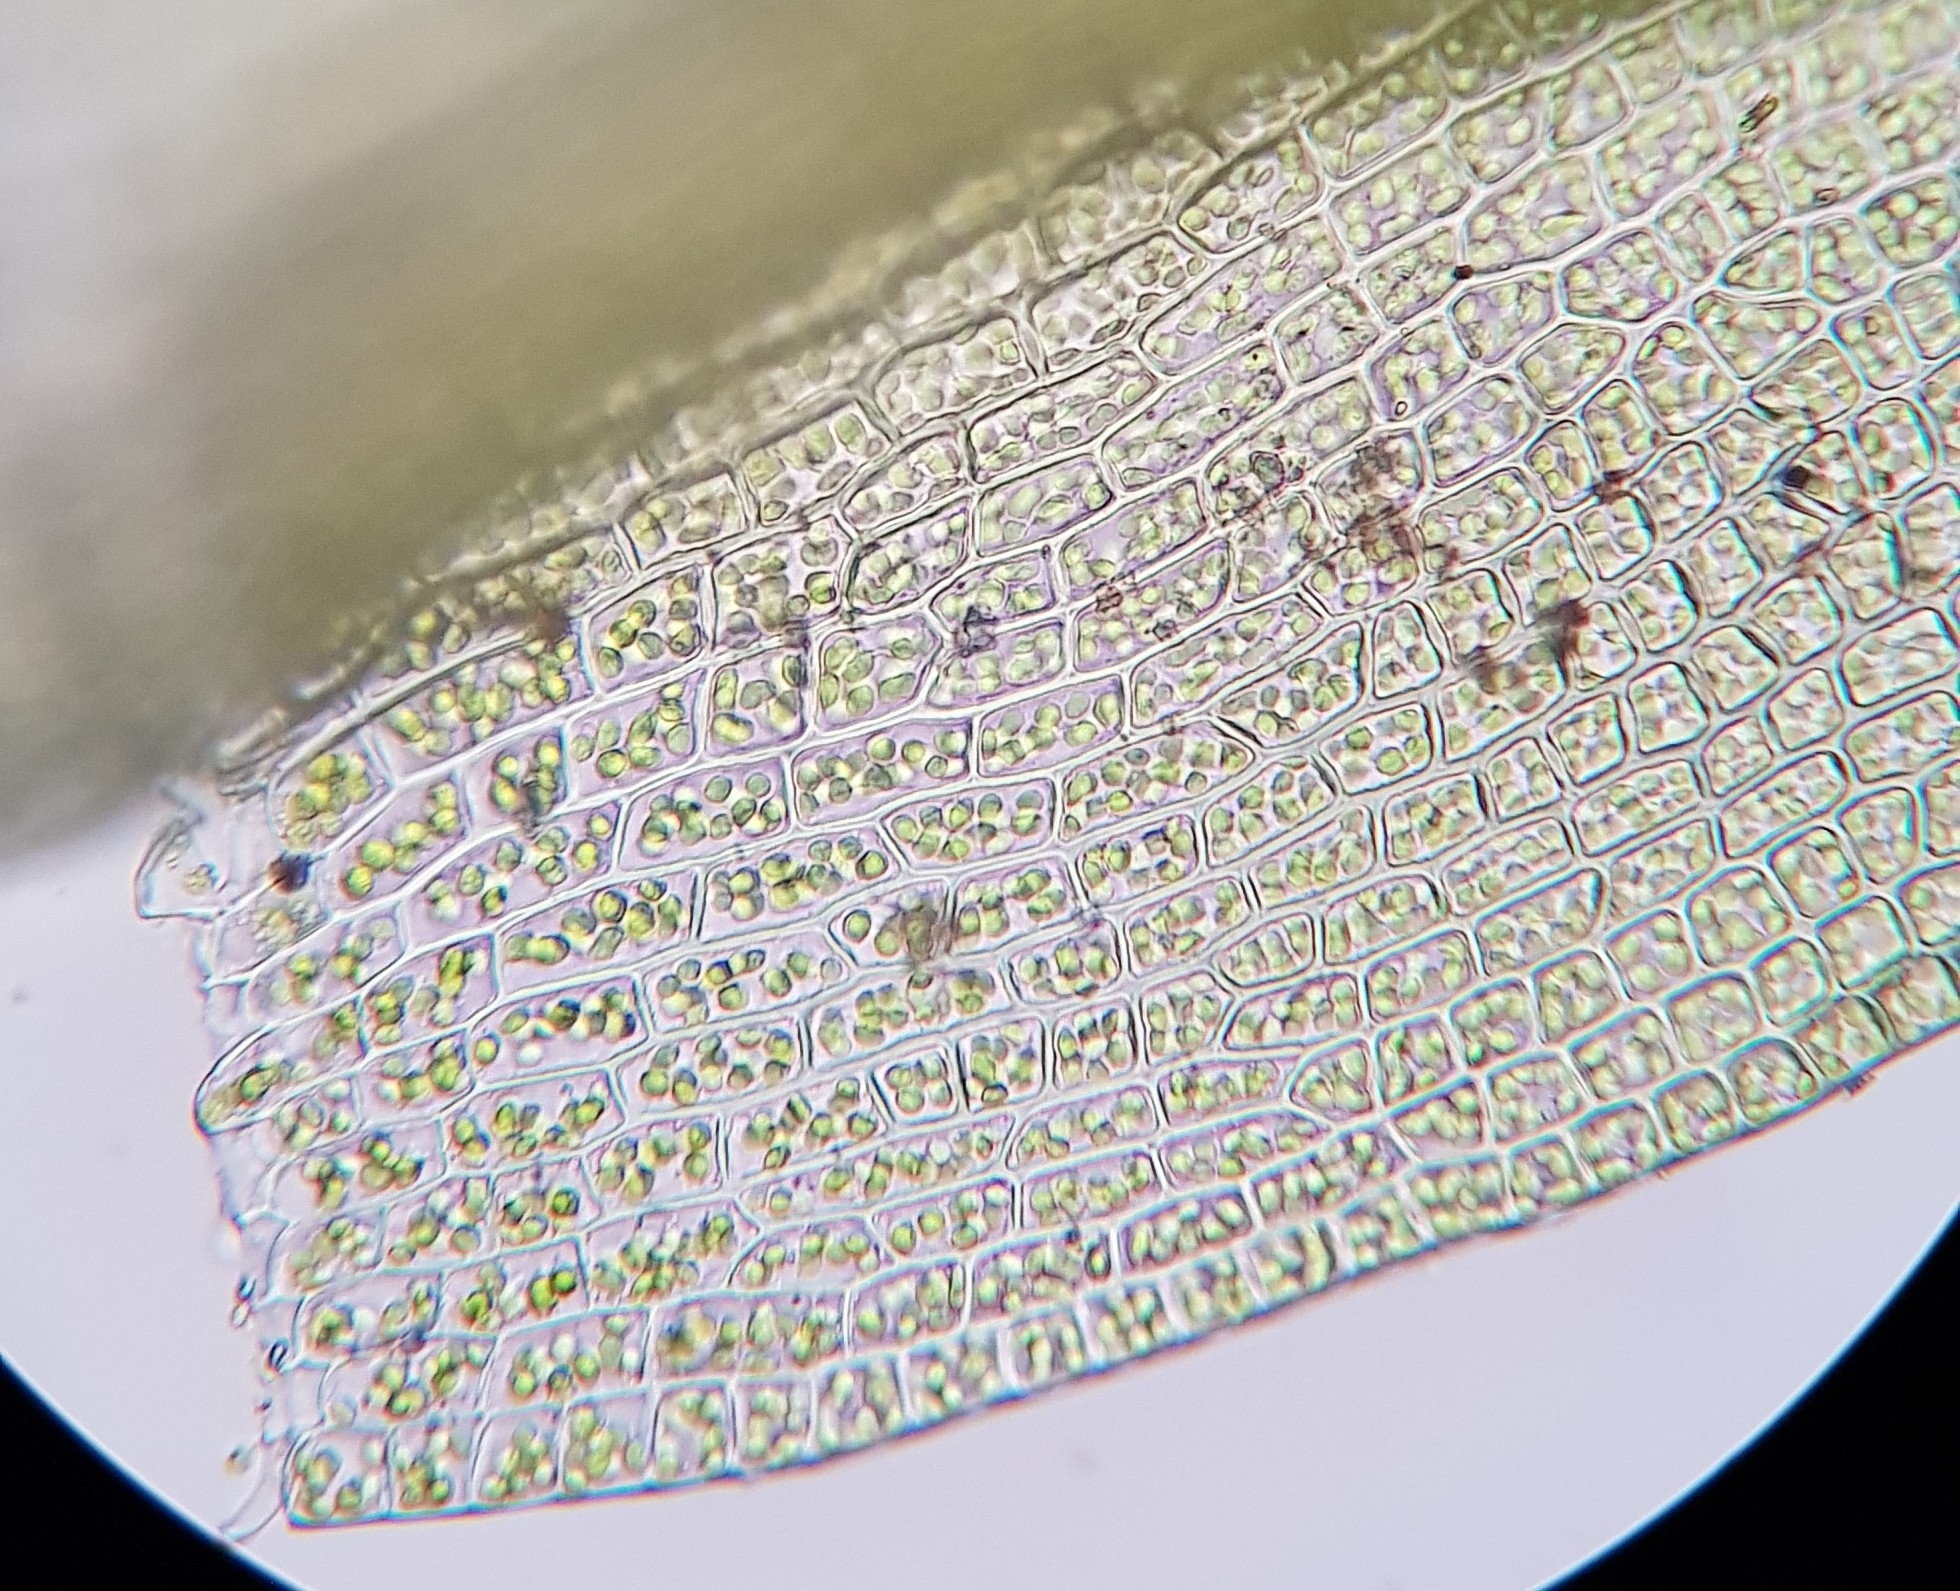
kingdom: Plantae
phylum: Bryophyta
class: Bryopsida
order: Dicranales
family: Ditrichaceae
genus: Ceratodon
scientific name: Ceratodon purpureus
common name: Redshank
